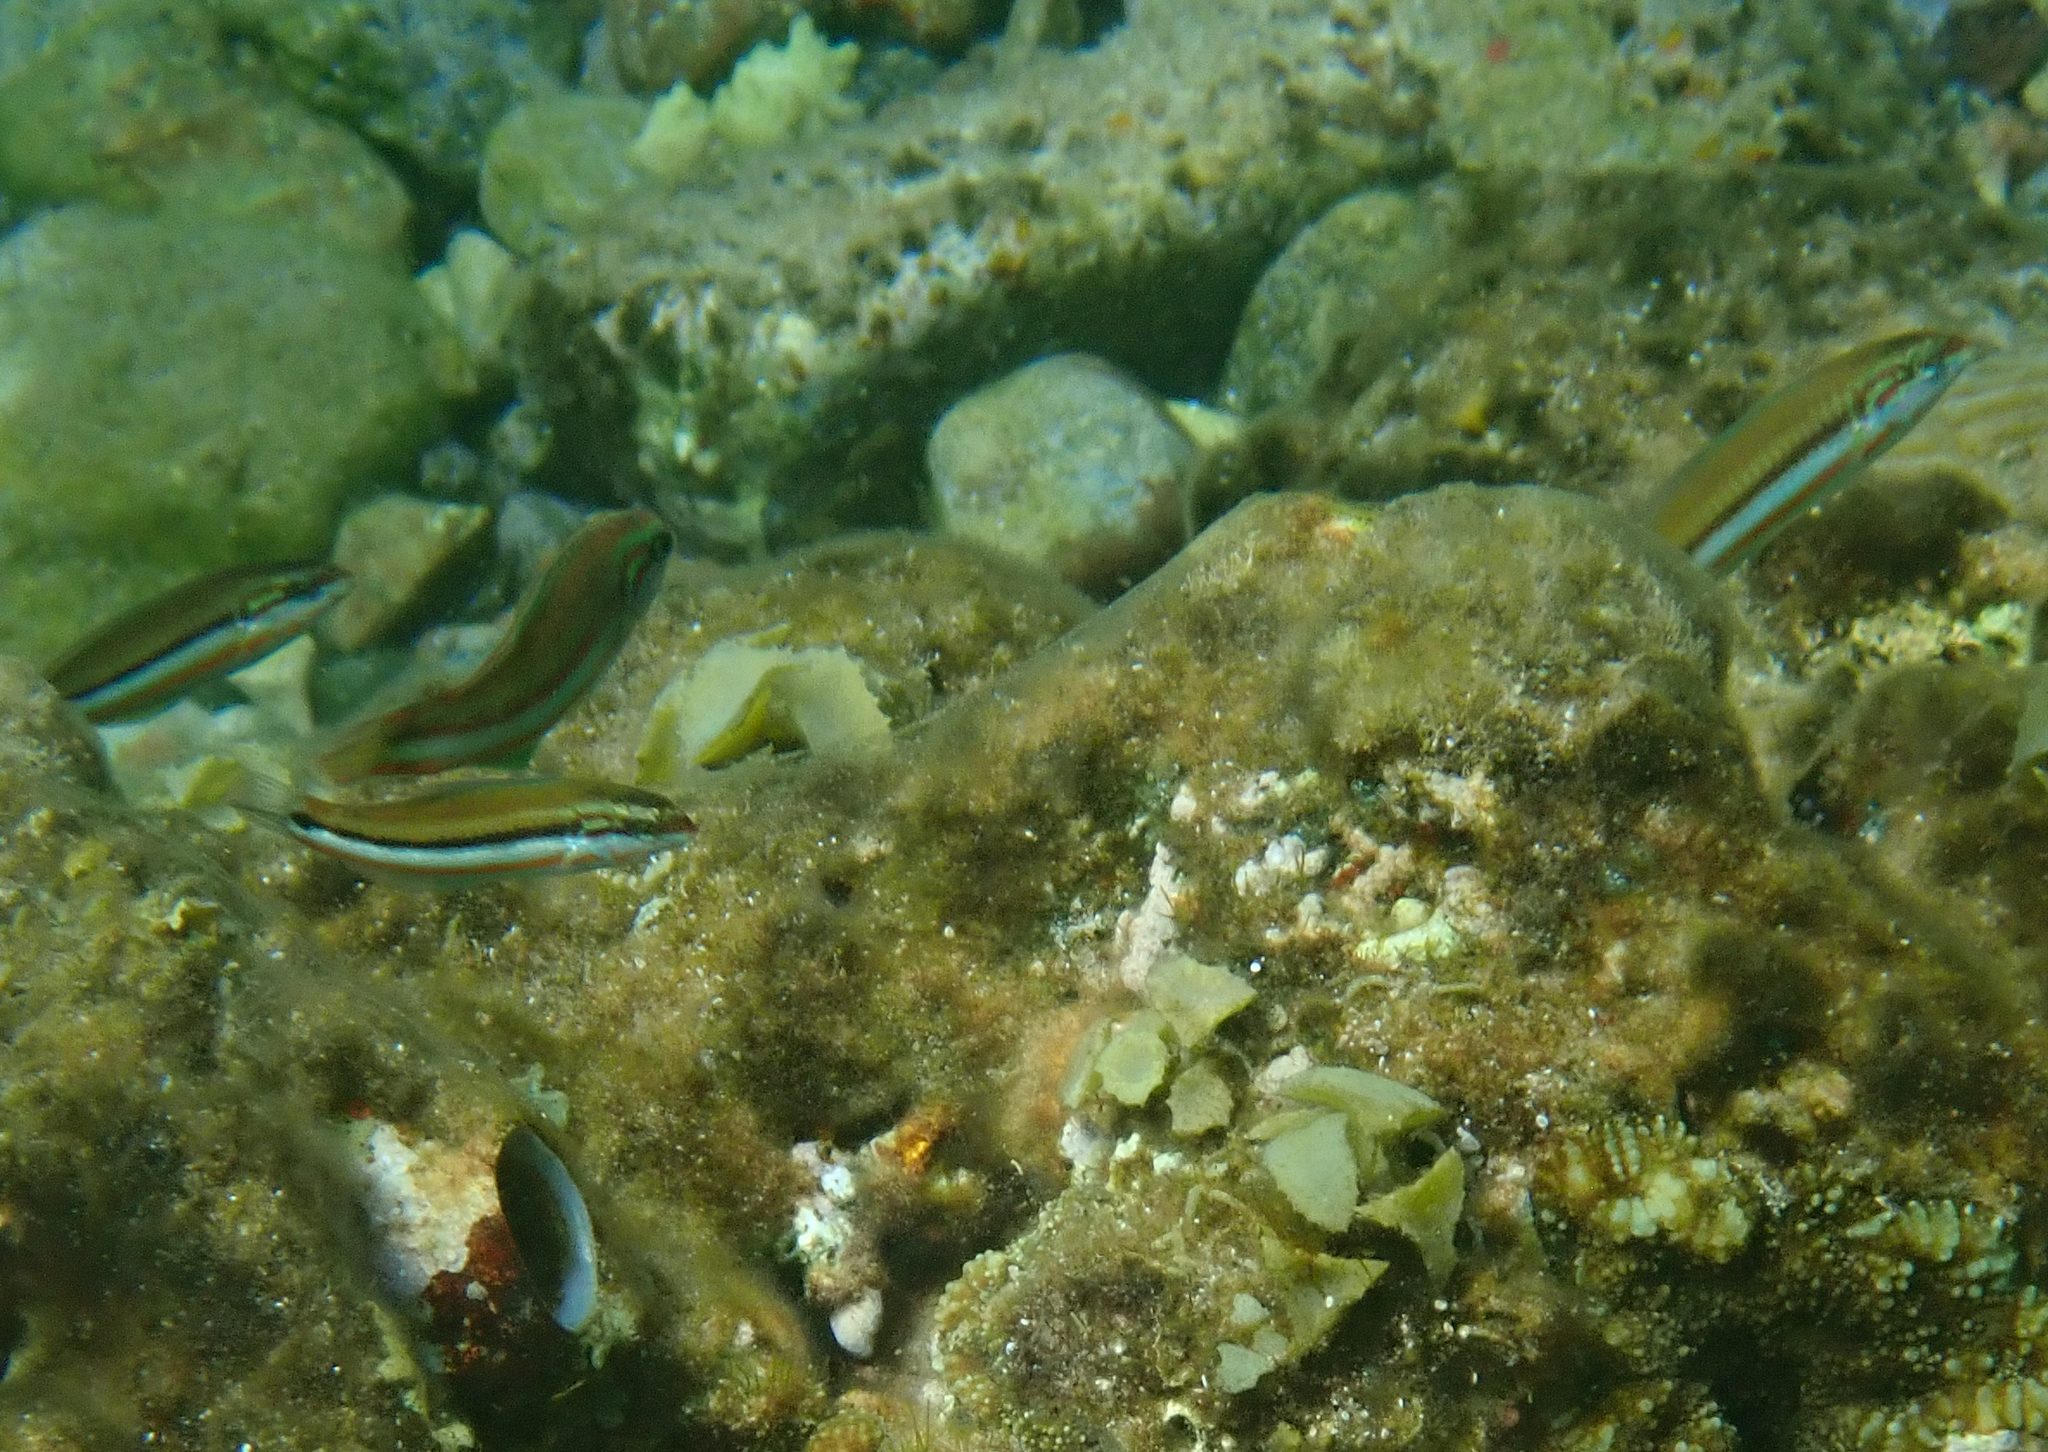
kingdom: Animalia
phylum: Chordata
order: Perciformes
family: Labridae
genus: Thalassoma
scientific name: Thalassoma rueppellii
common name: Klunzinger's wrasse
